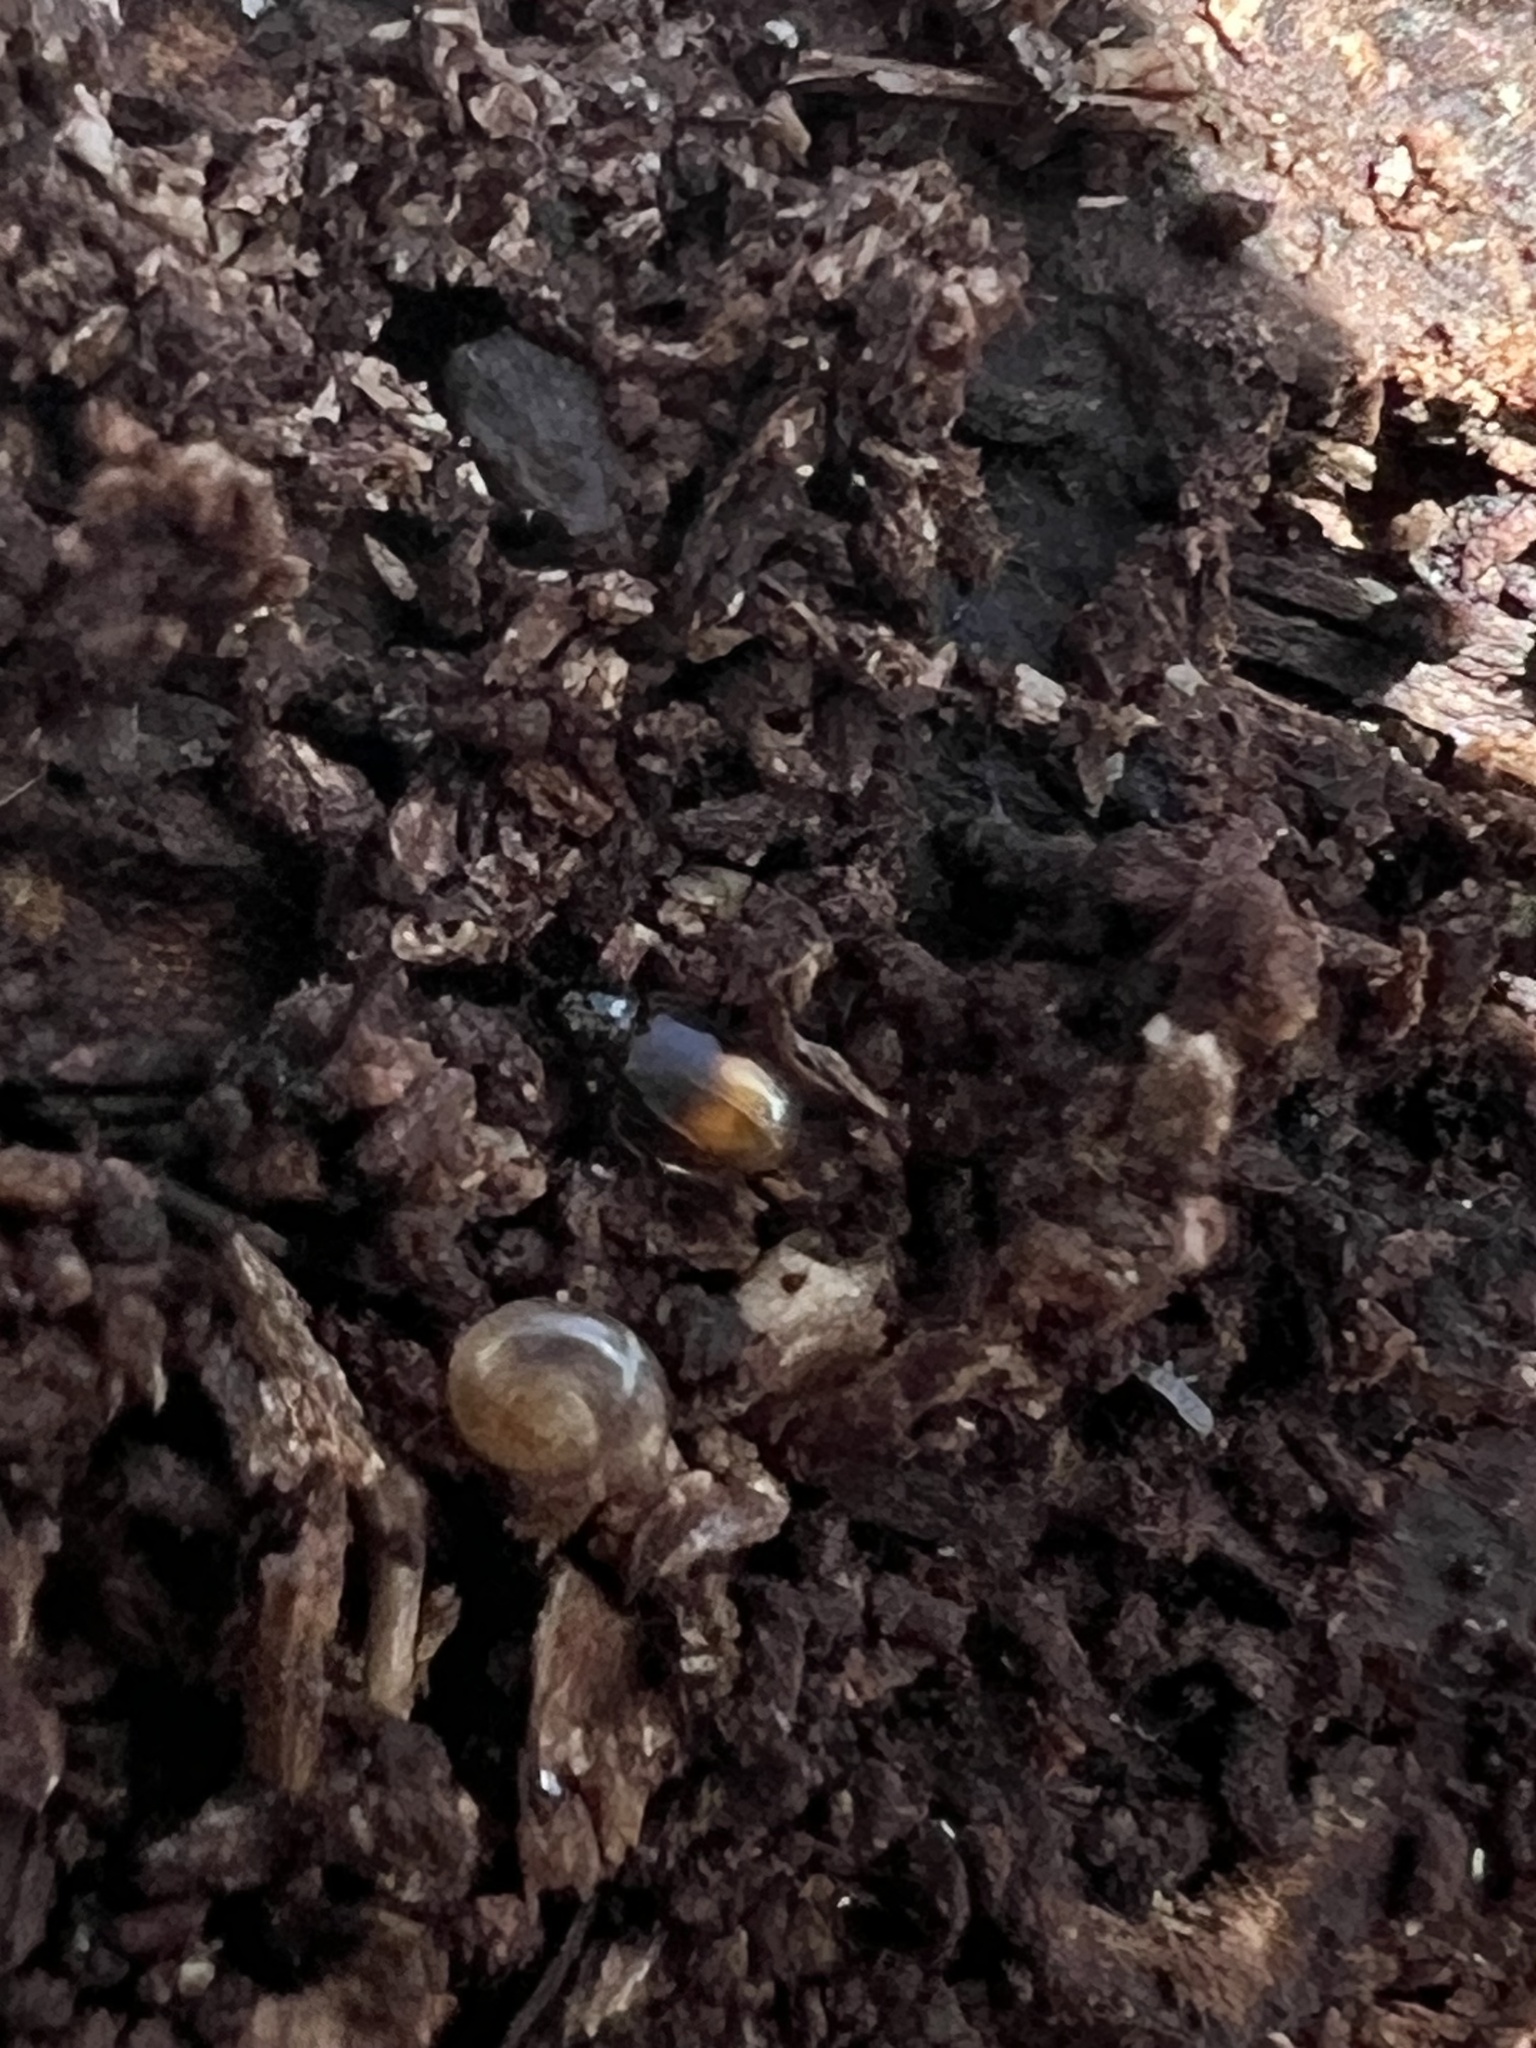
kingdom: Animalia
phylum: Arthropoda
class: Insecta
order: Coleoptera
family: Carabidae
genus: Mioptachys
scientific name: Mioptachys flavicauda
